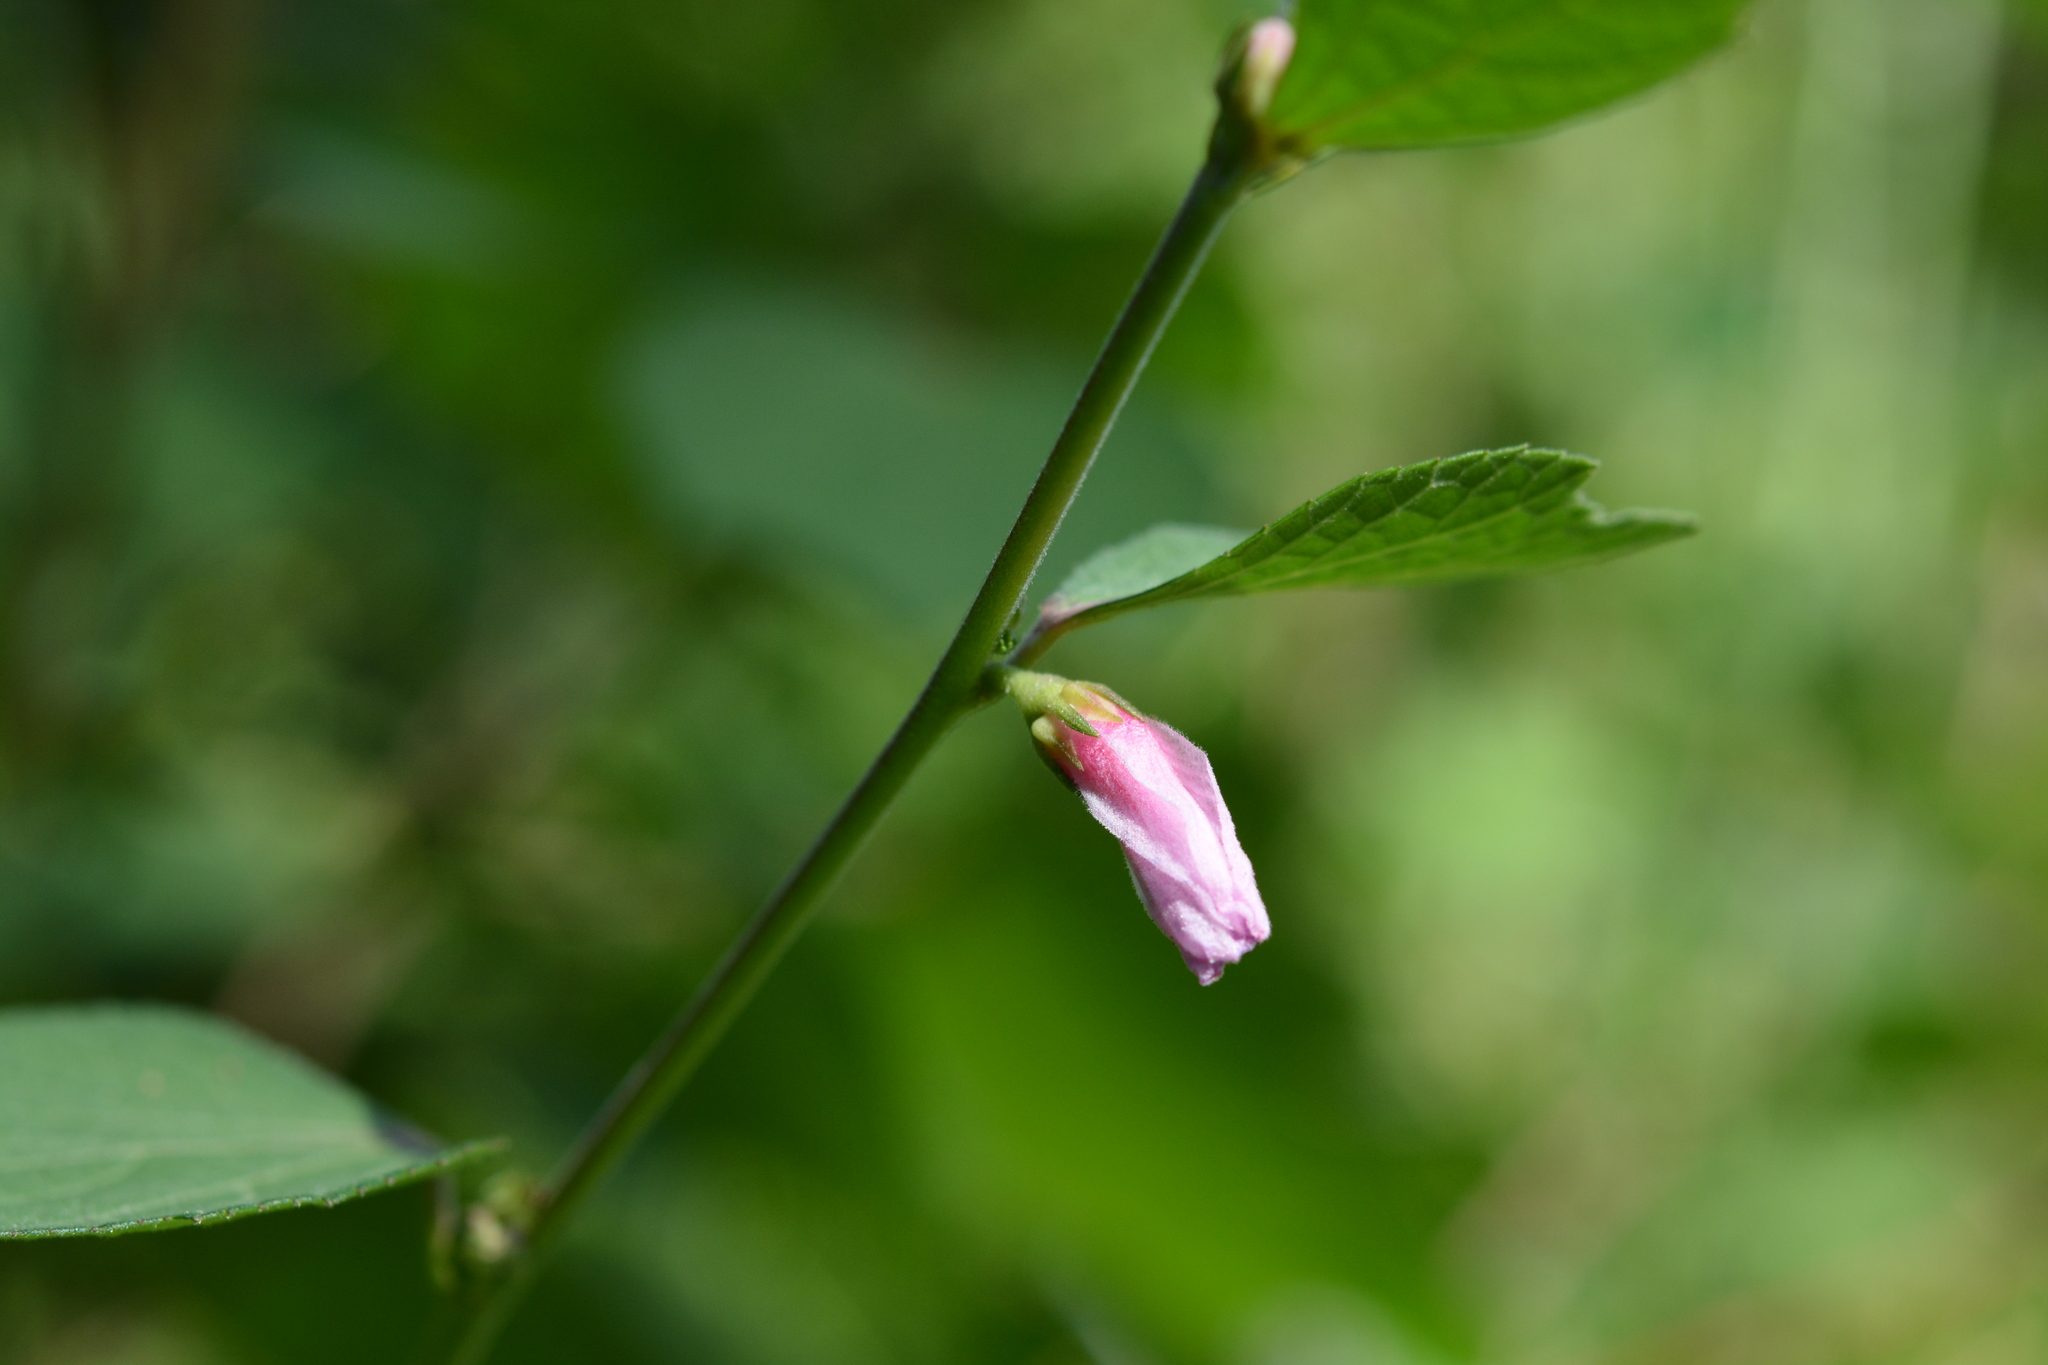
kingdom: Plantae
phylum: Tracheophyta
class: Magnoliopsida
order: Malvales
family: Malvaceae
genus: Urena
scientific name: Urena lobata
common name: Caesarweed
